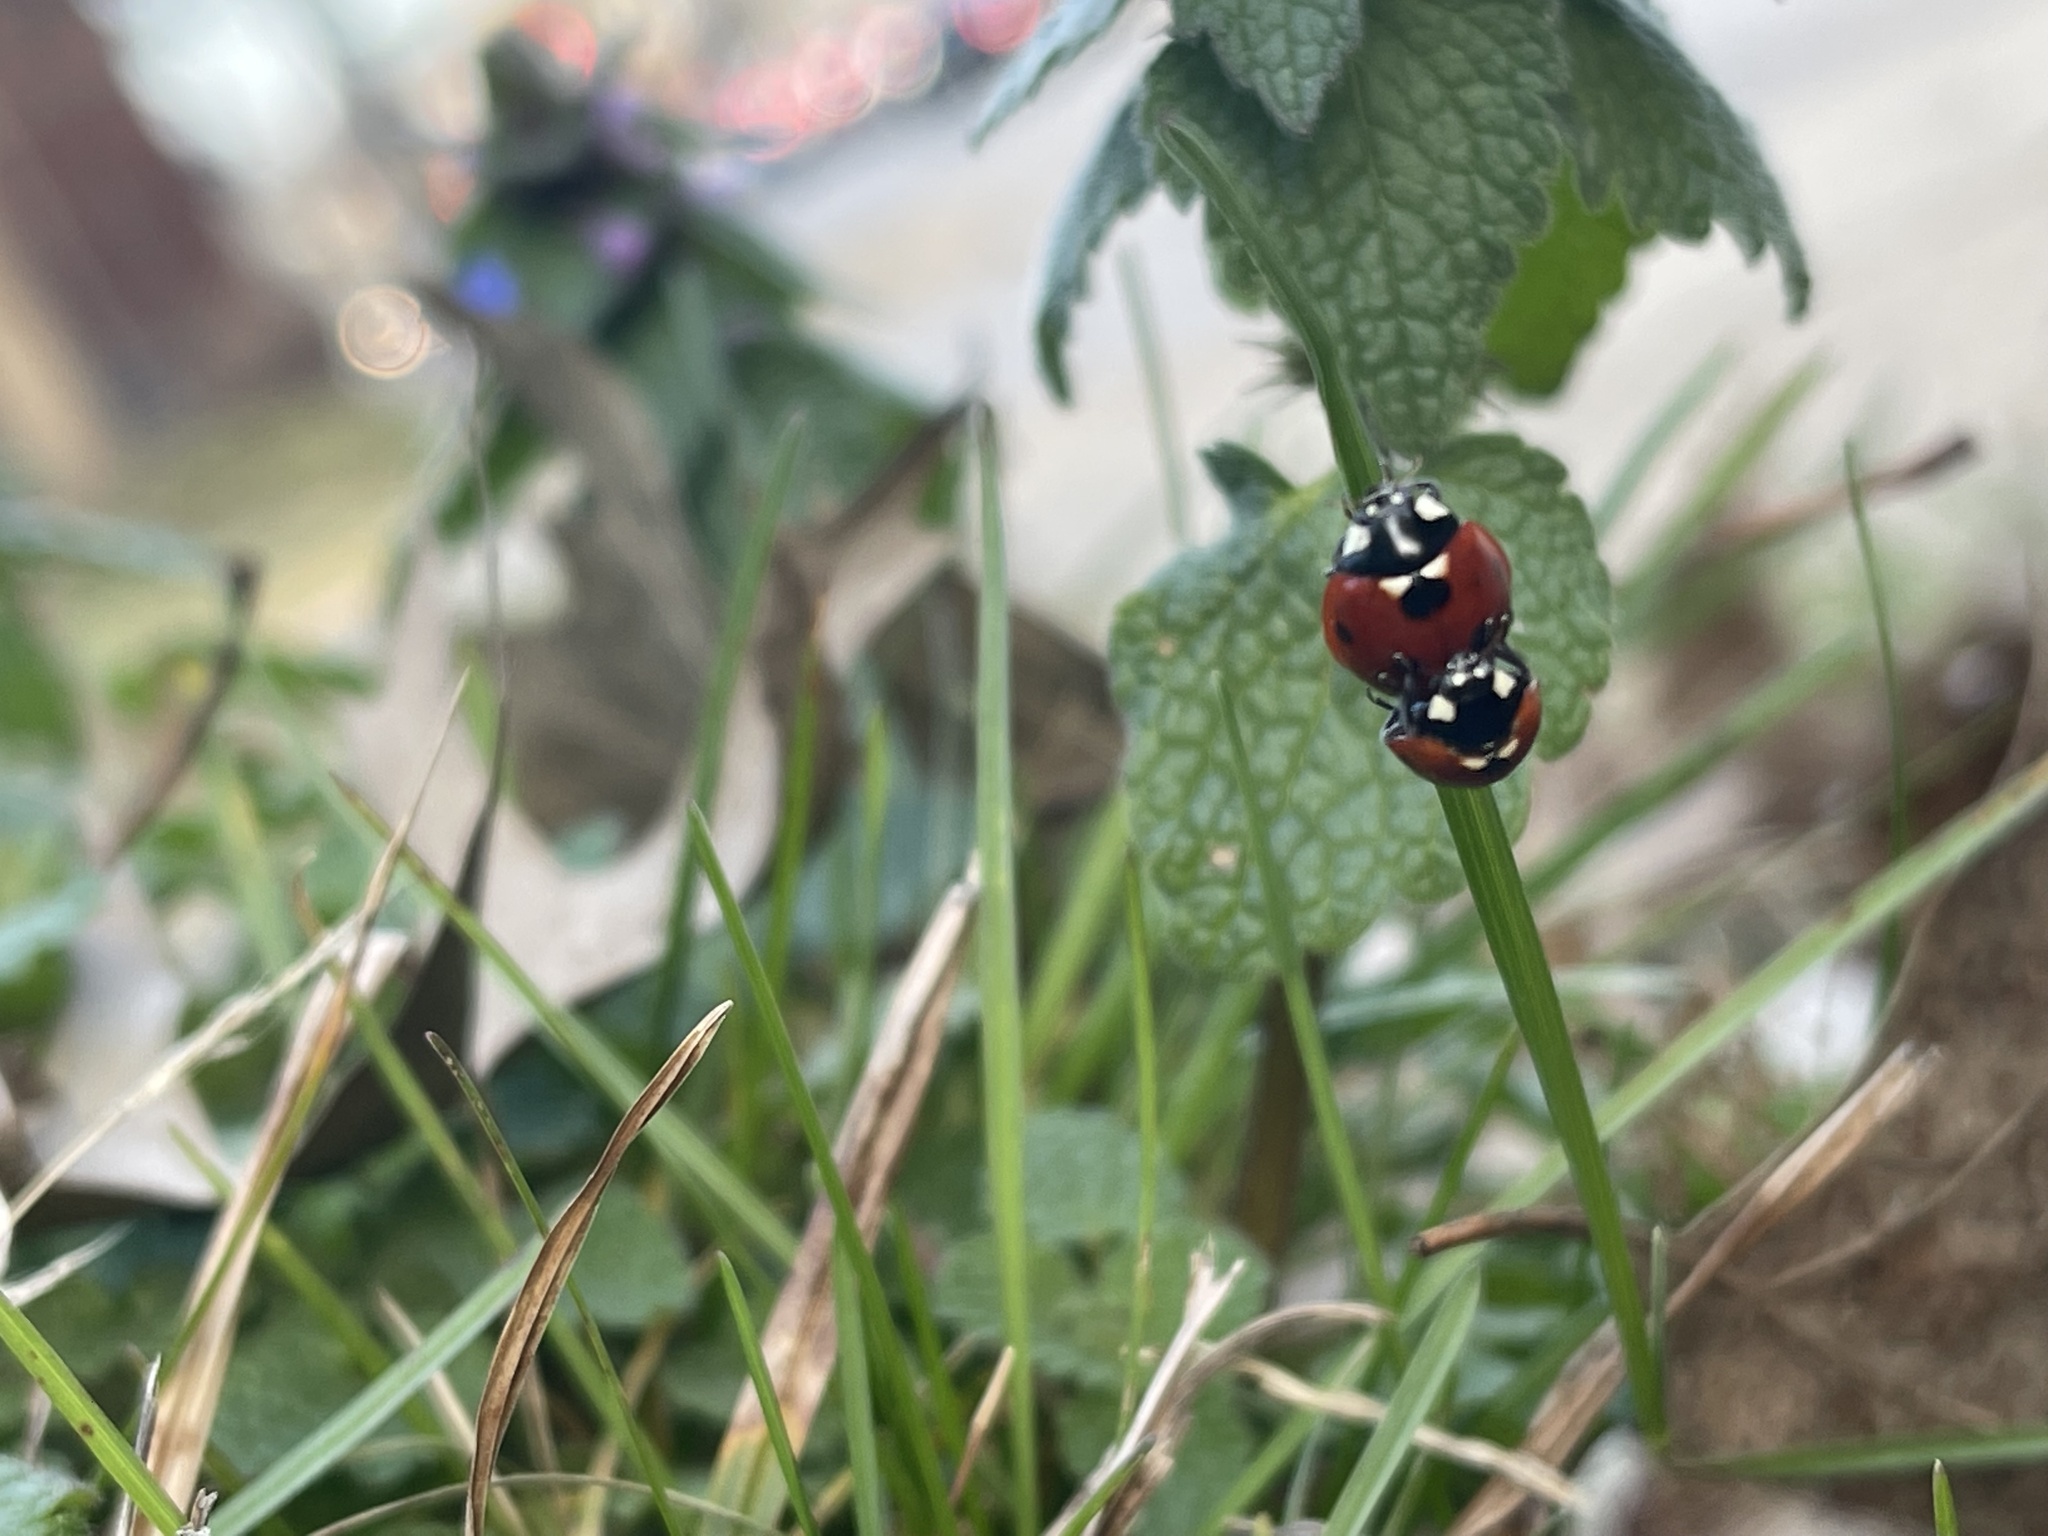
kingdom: Animalia
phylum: Arthropoda
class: Insecta
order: Coleoptera
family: Coccinellidae
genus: Coccinella
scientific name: Coccinella septempunctata
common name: Sevenspotted lady beetle
